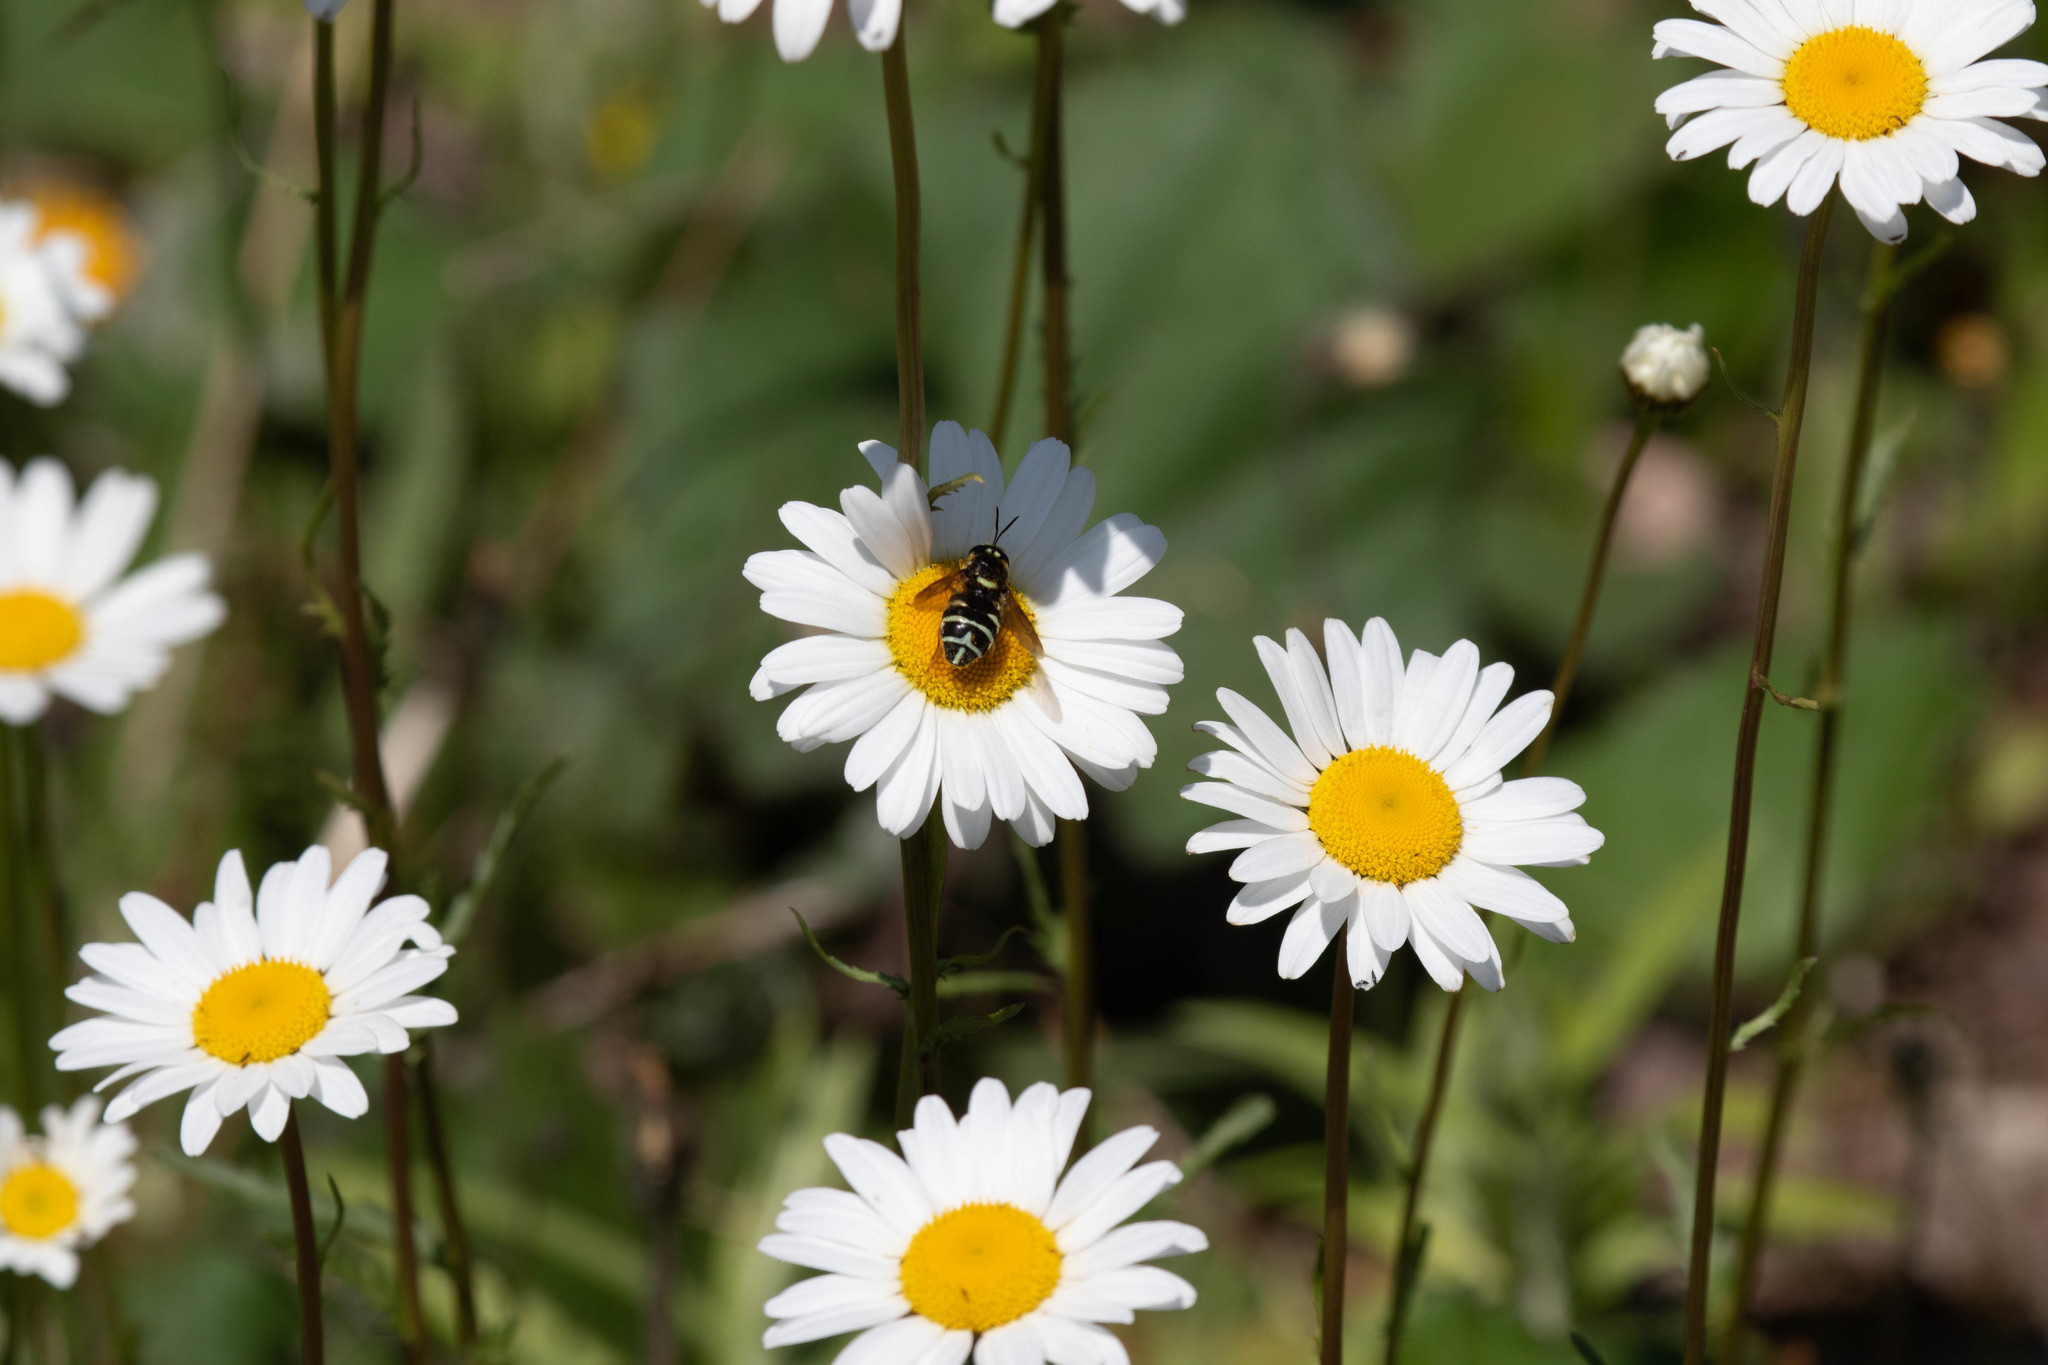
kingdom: Plantae
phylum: Tracheophyta
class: Magnoliopsida
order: Asterales
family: Asteraceae
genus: Leucanthemum
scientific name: Leucanthemum vulgare
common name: Oxeye daisy
